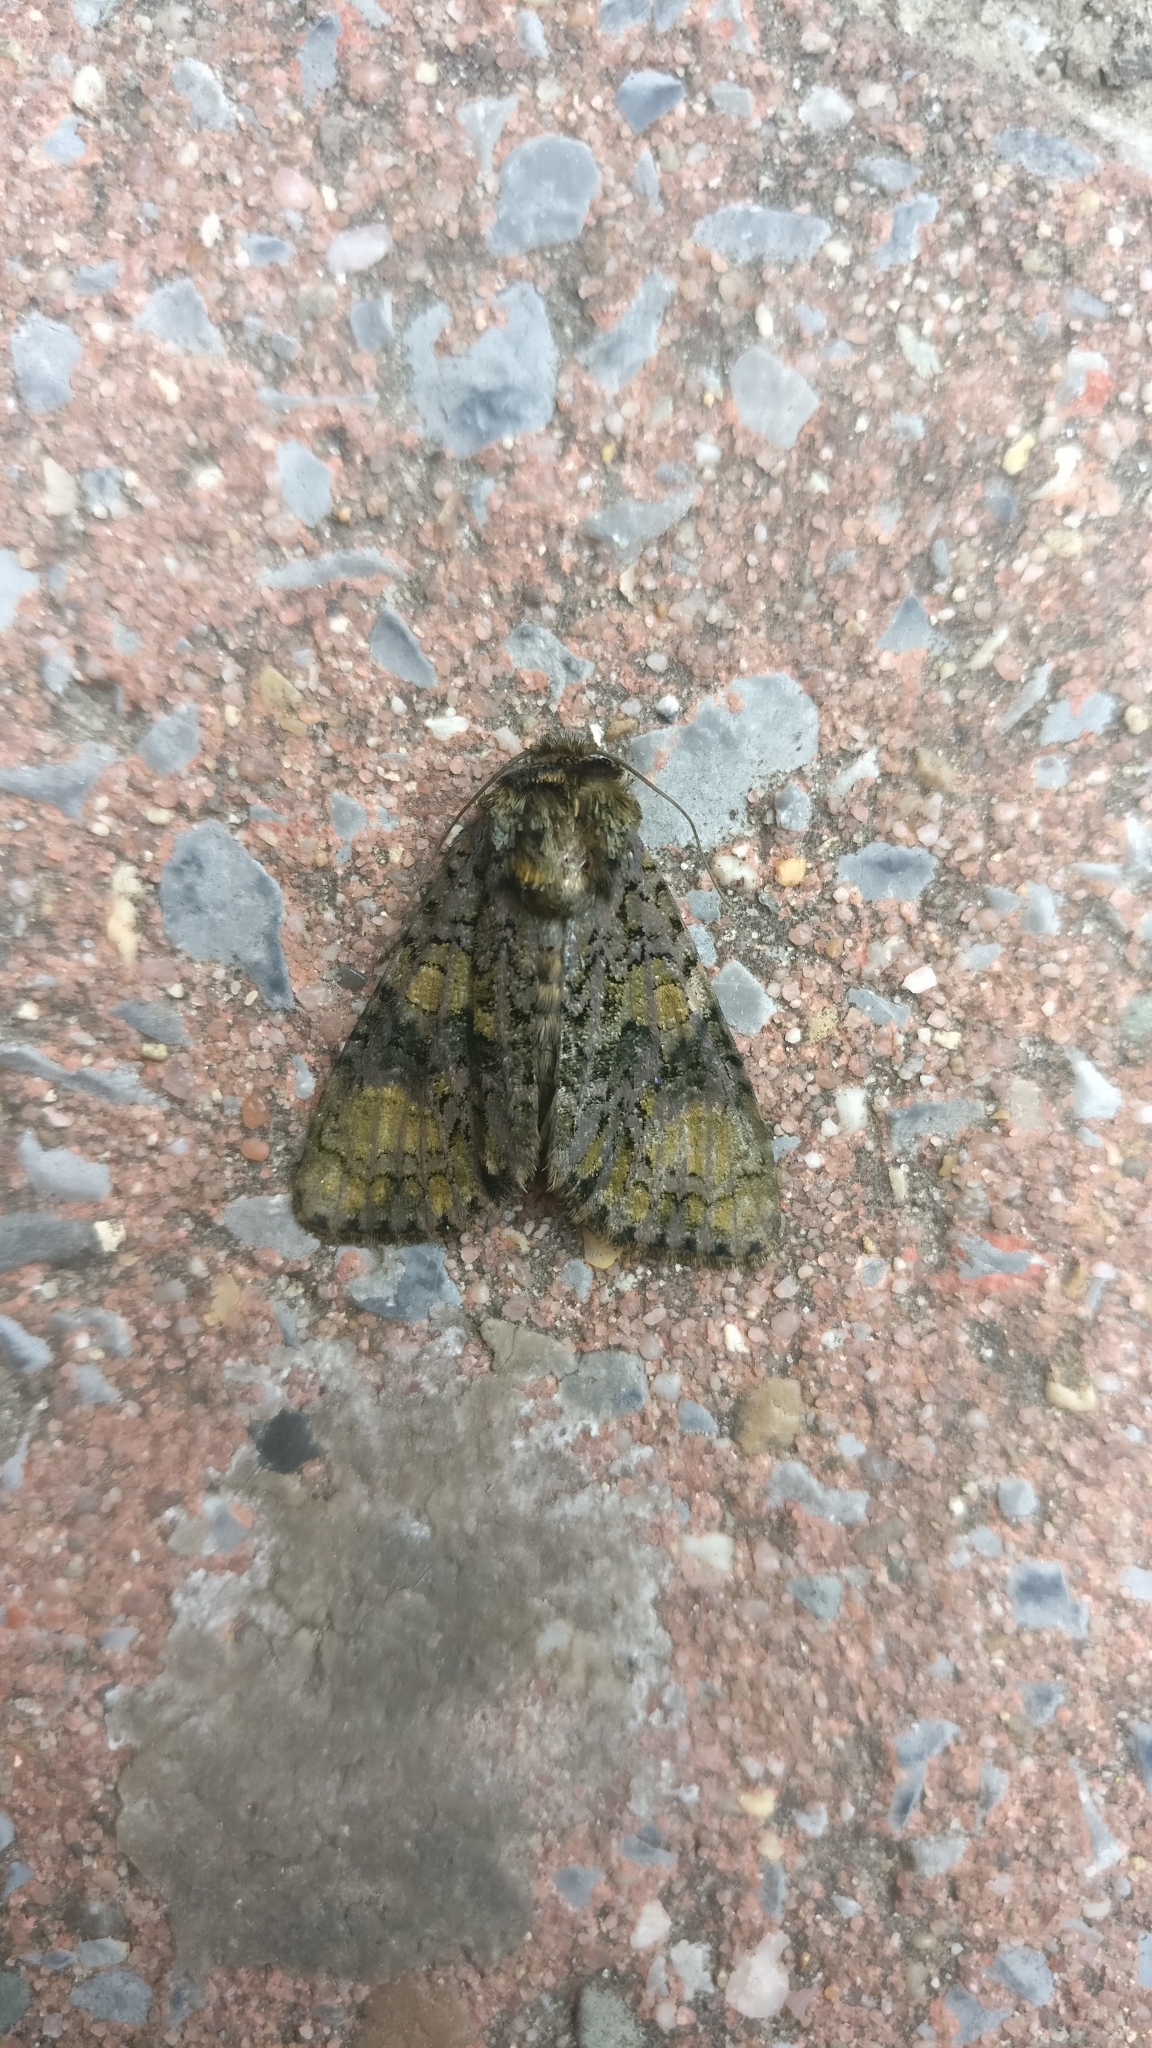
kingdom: Animalia
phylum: Arthropoda
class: Insecta
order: Lepidoptera
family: Noctuidae
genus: Craniophora
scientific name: Craniophora ligustri
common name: Coronet
